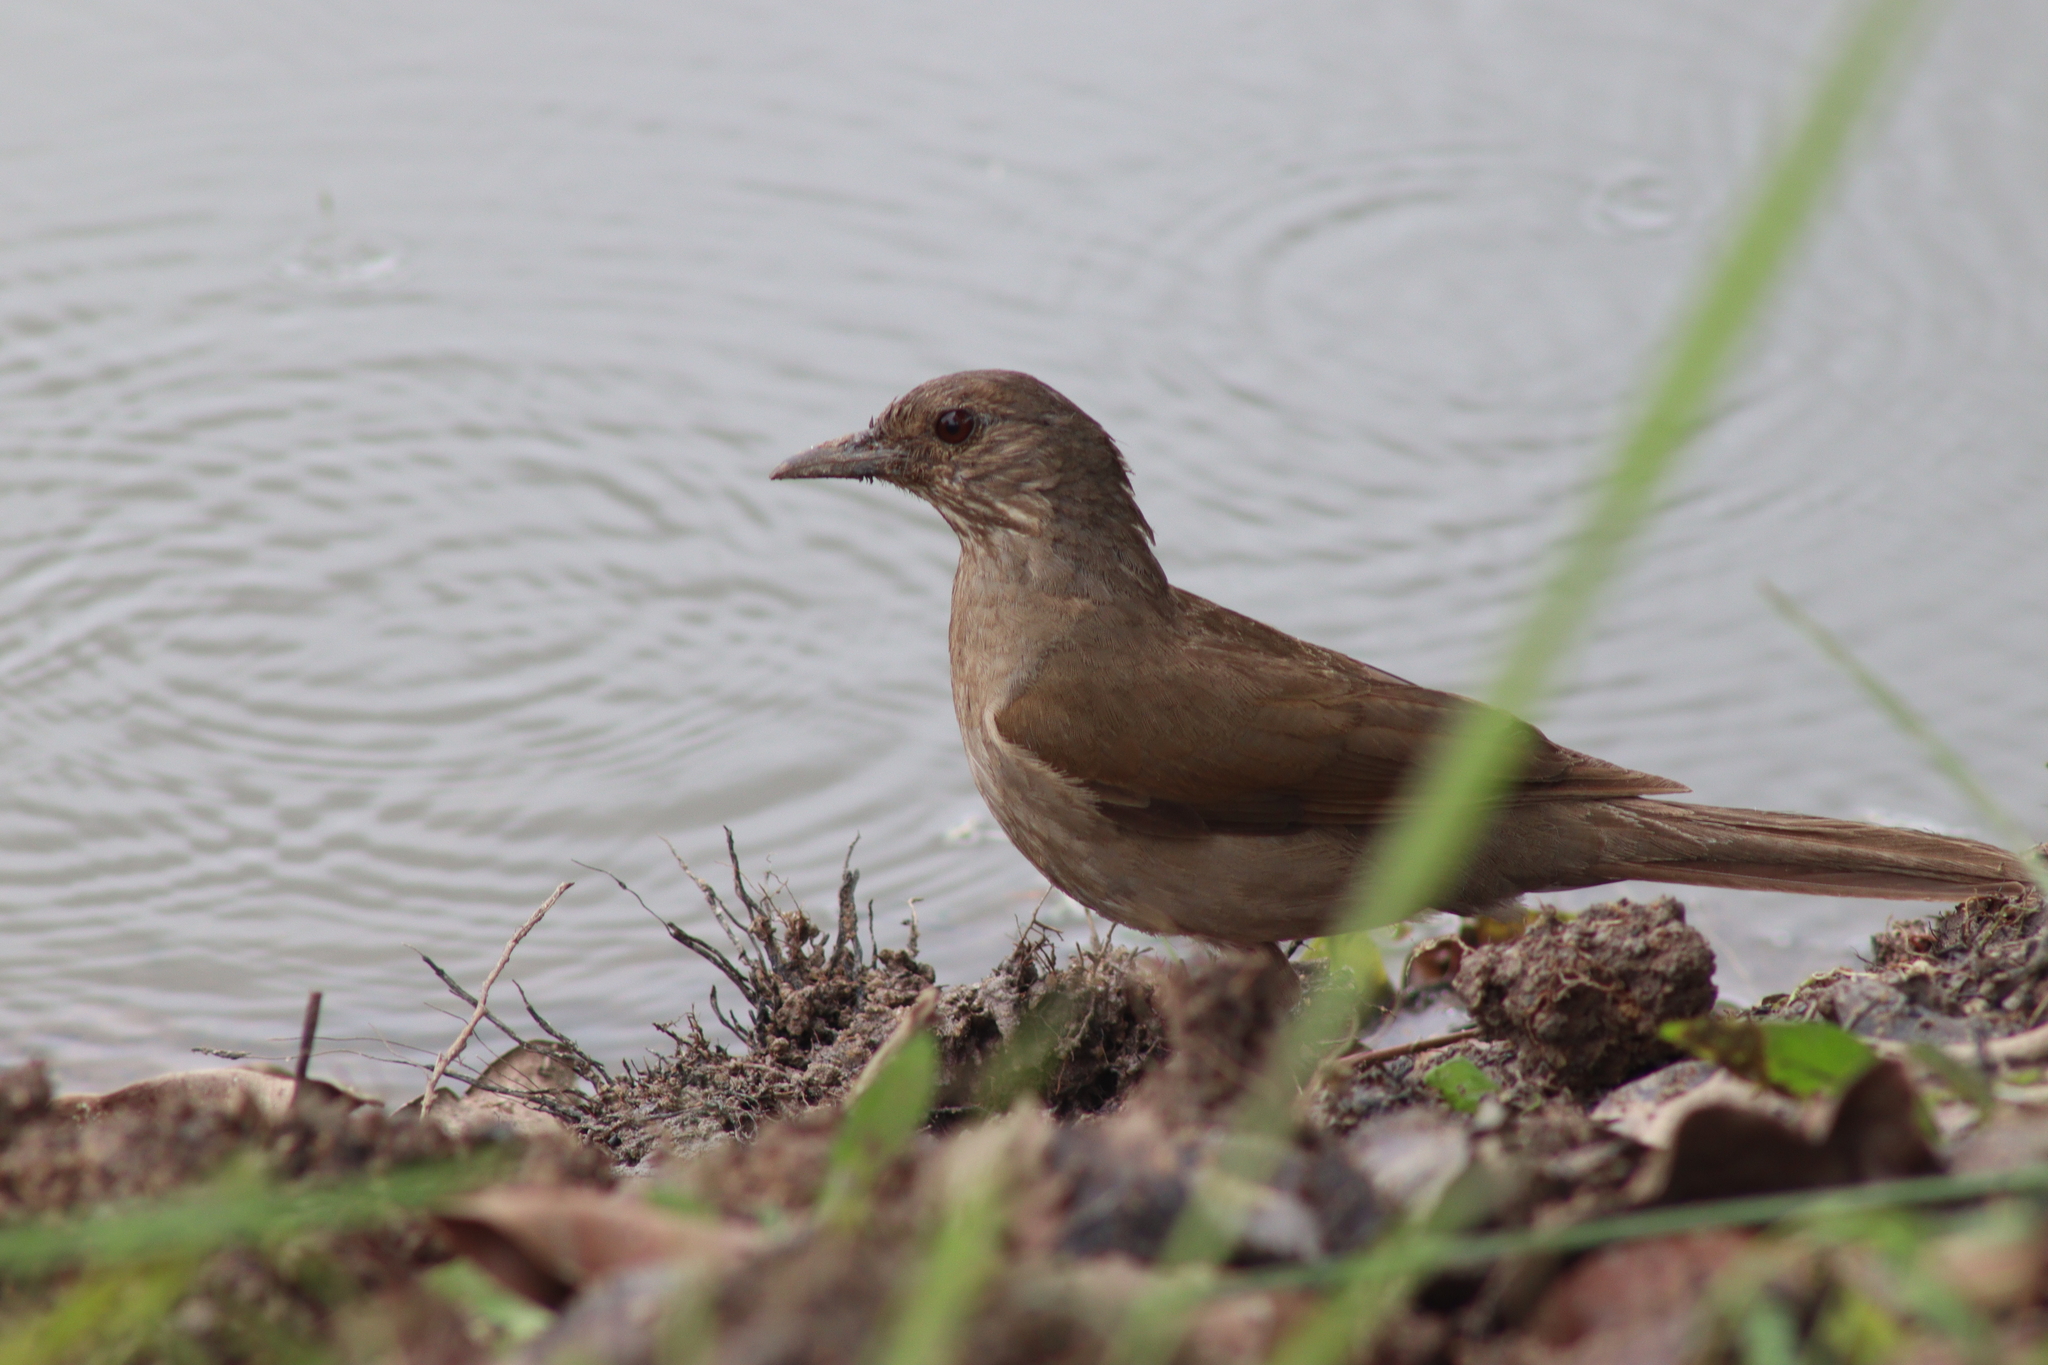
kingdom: Animalia
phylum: Chordata
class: Aves
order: Passeriformes
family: Turdidae
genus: Turdus
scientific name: Turdus leucomelas
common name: Pale-breasted thrush
